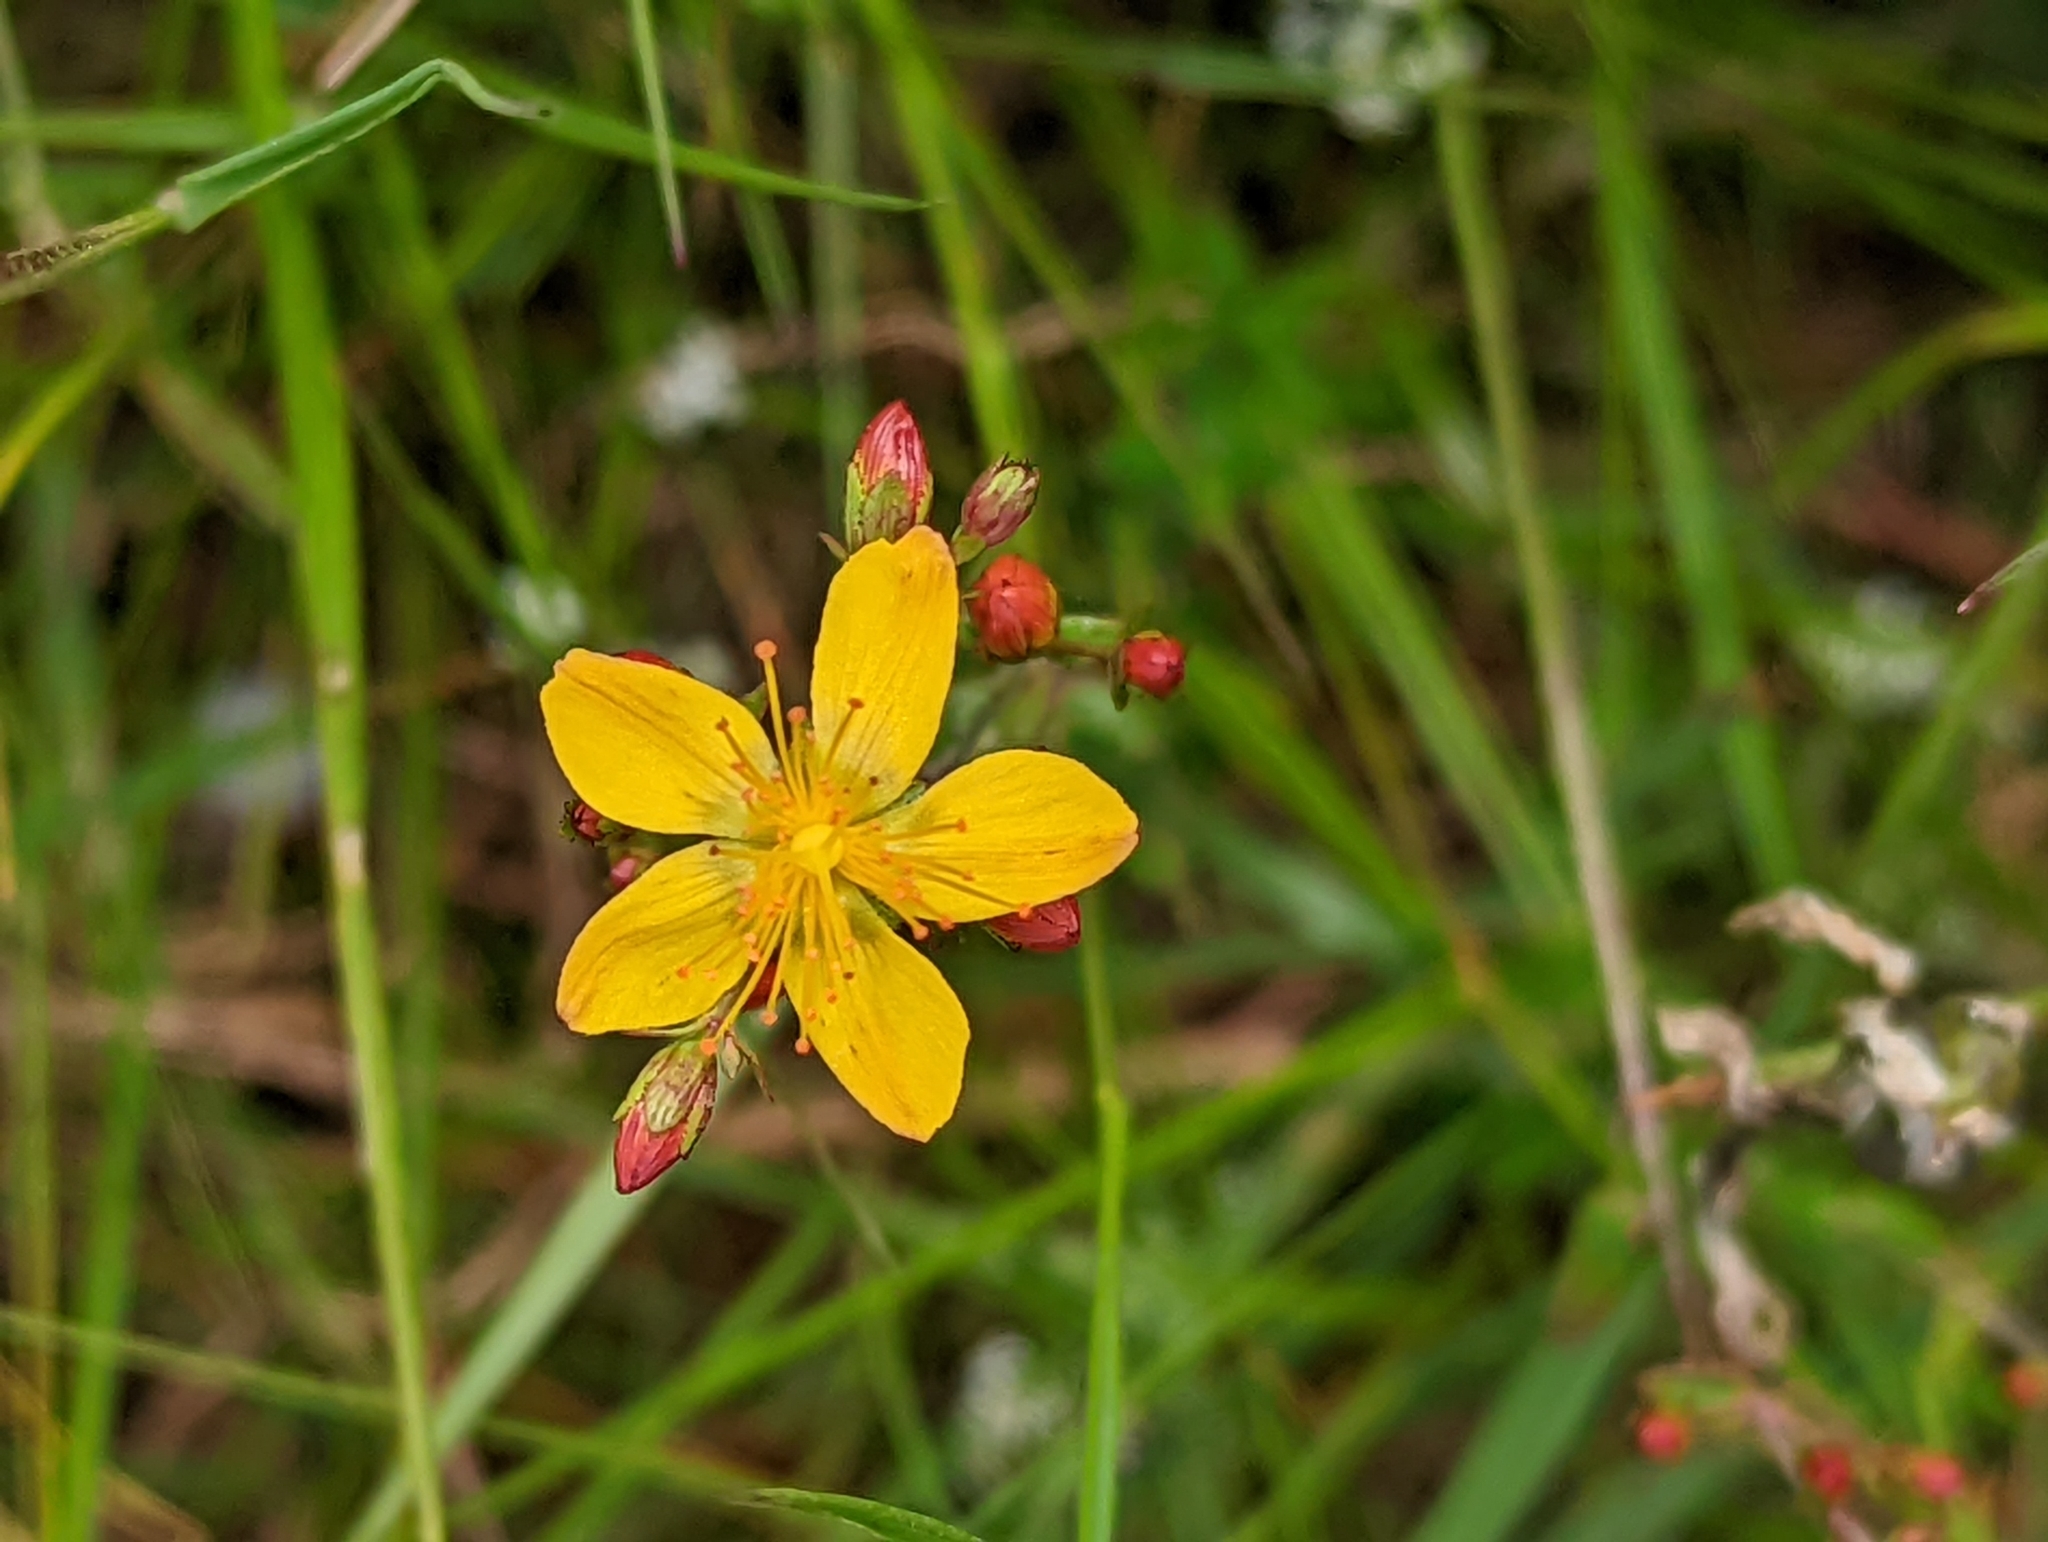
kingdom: Plantae
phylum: Tracheophyta
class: Magnoliopsida
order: Malpighiales
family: Hypericaceae
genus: Hypericum
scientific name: Hypericum pulchrum
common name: Slender st. john's-wort
